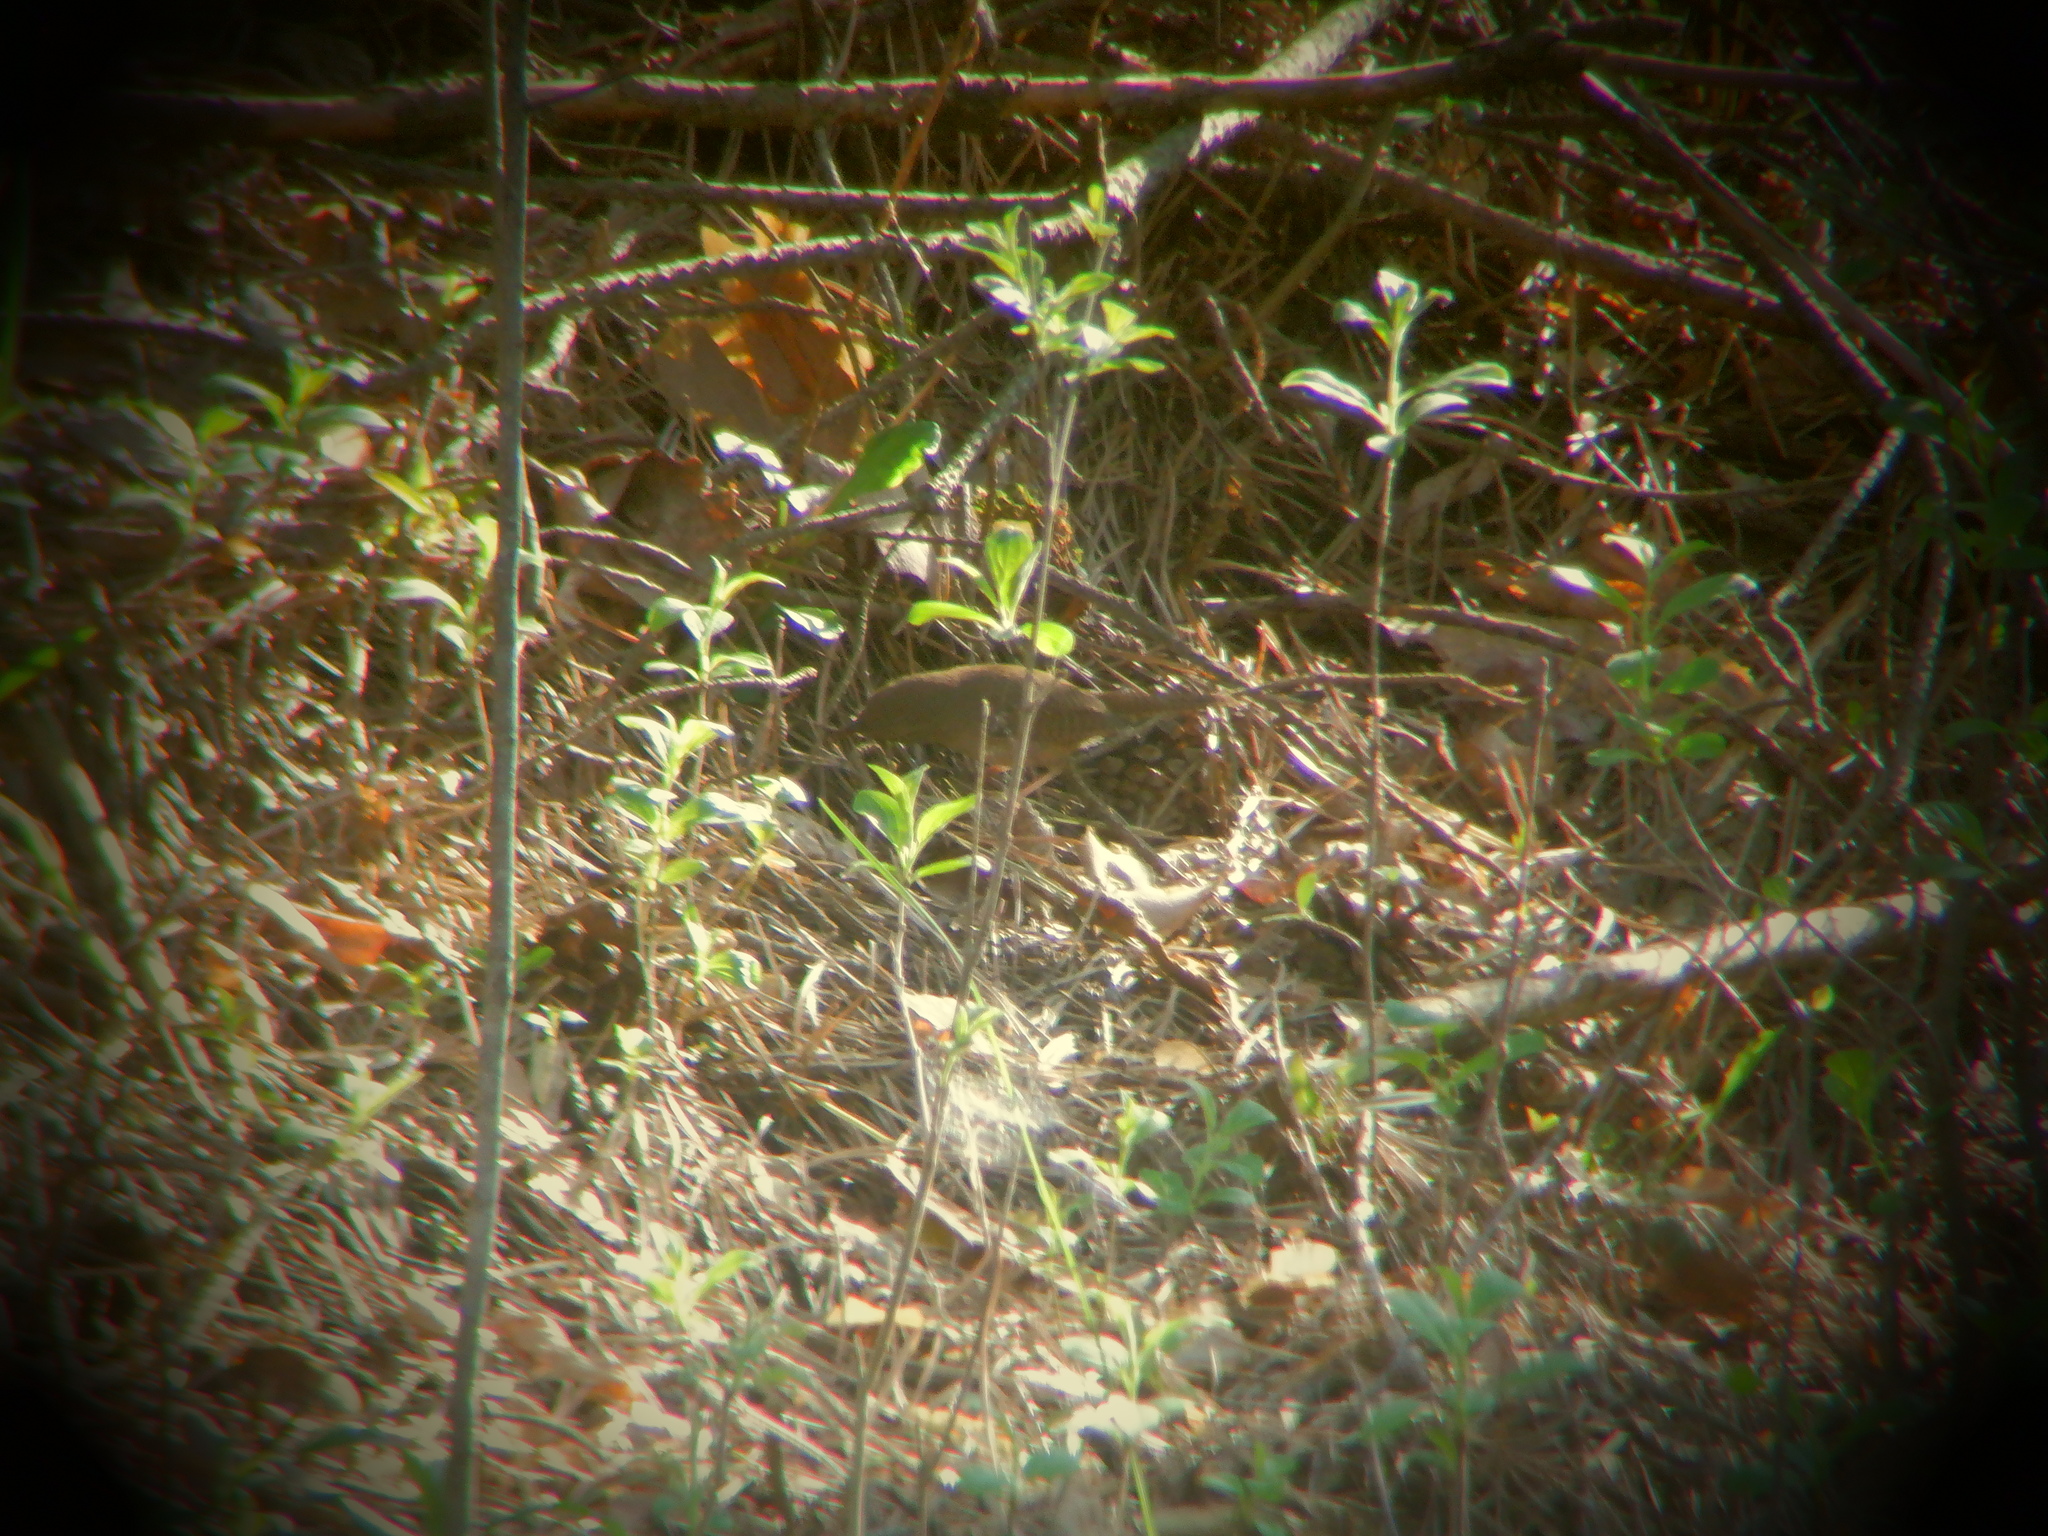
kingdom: Animalia
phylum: Chordata
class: Aves
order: Passeriformes
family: Troglodytidae
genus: Troglodytes
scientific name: Troglodytes aedon
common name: House wren
